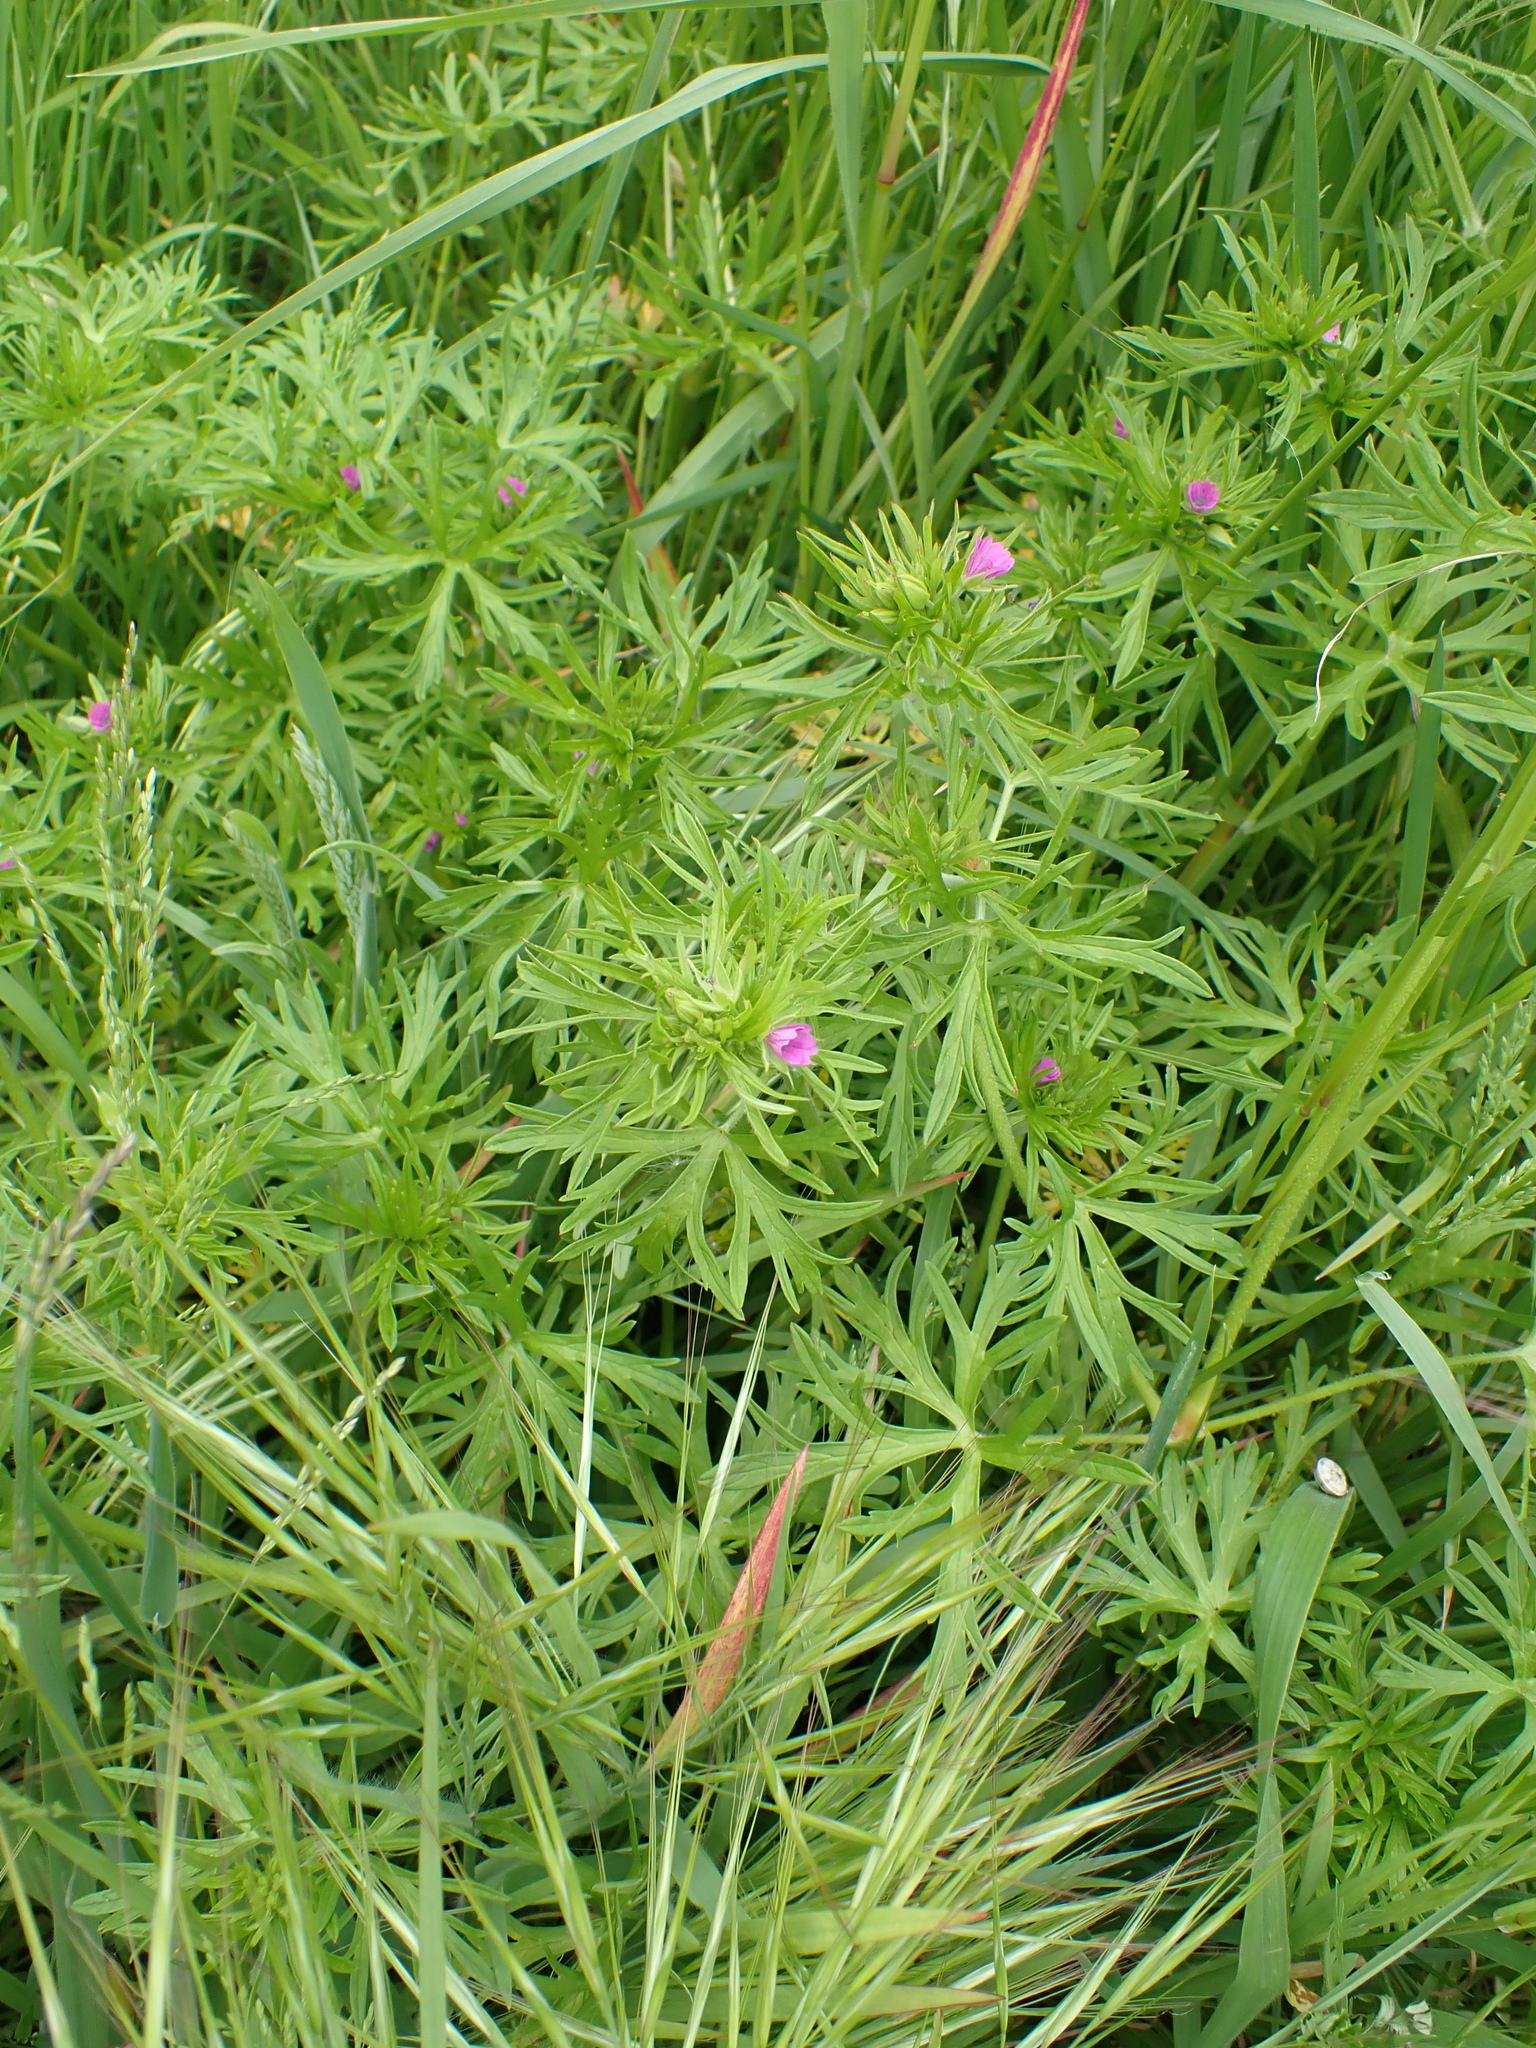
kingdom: Plantae
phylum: Tracheophyta
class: Magnoliopsida
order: Geraniales
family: Geraniaceae
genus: Geranium
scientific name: Geranium dissectum
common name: Cut-leaved crane's-bill
